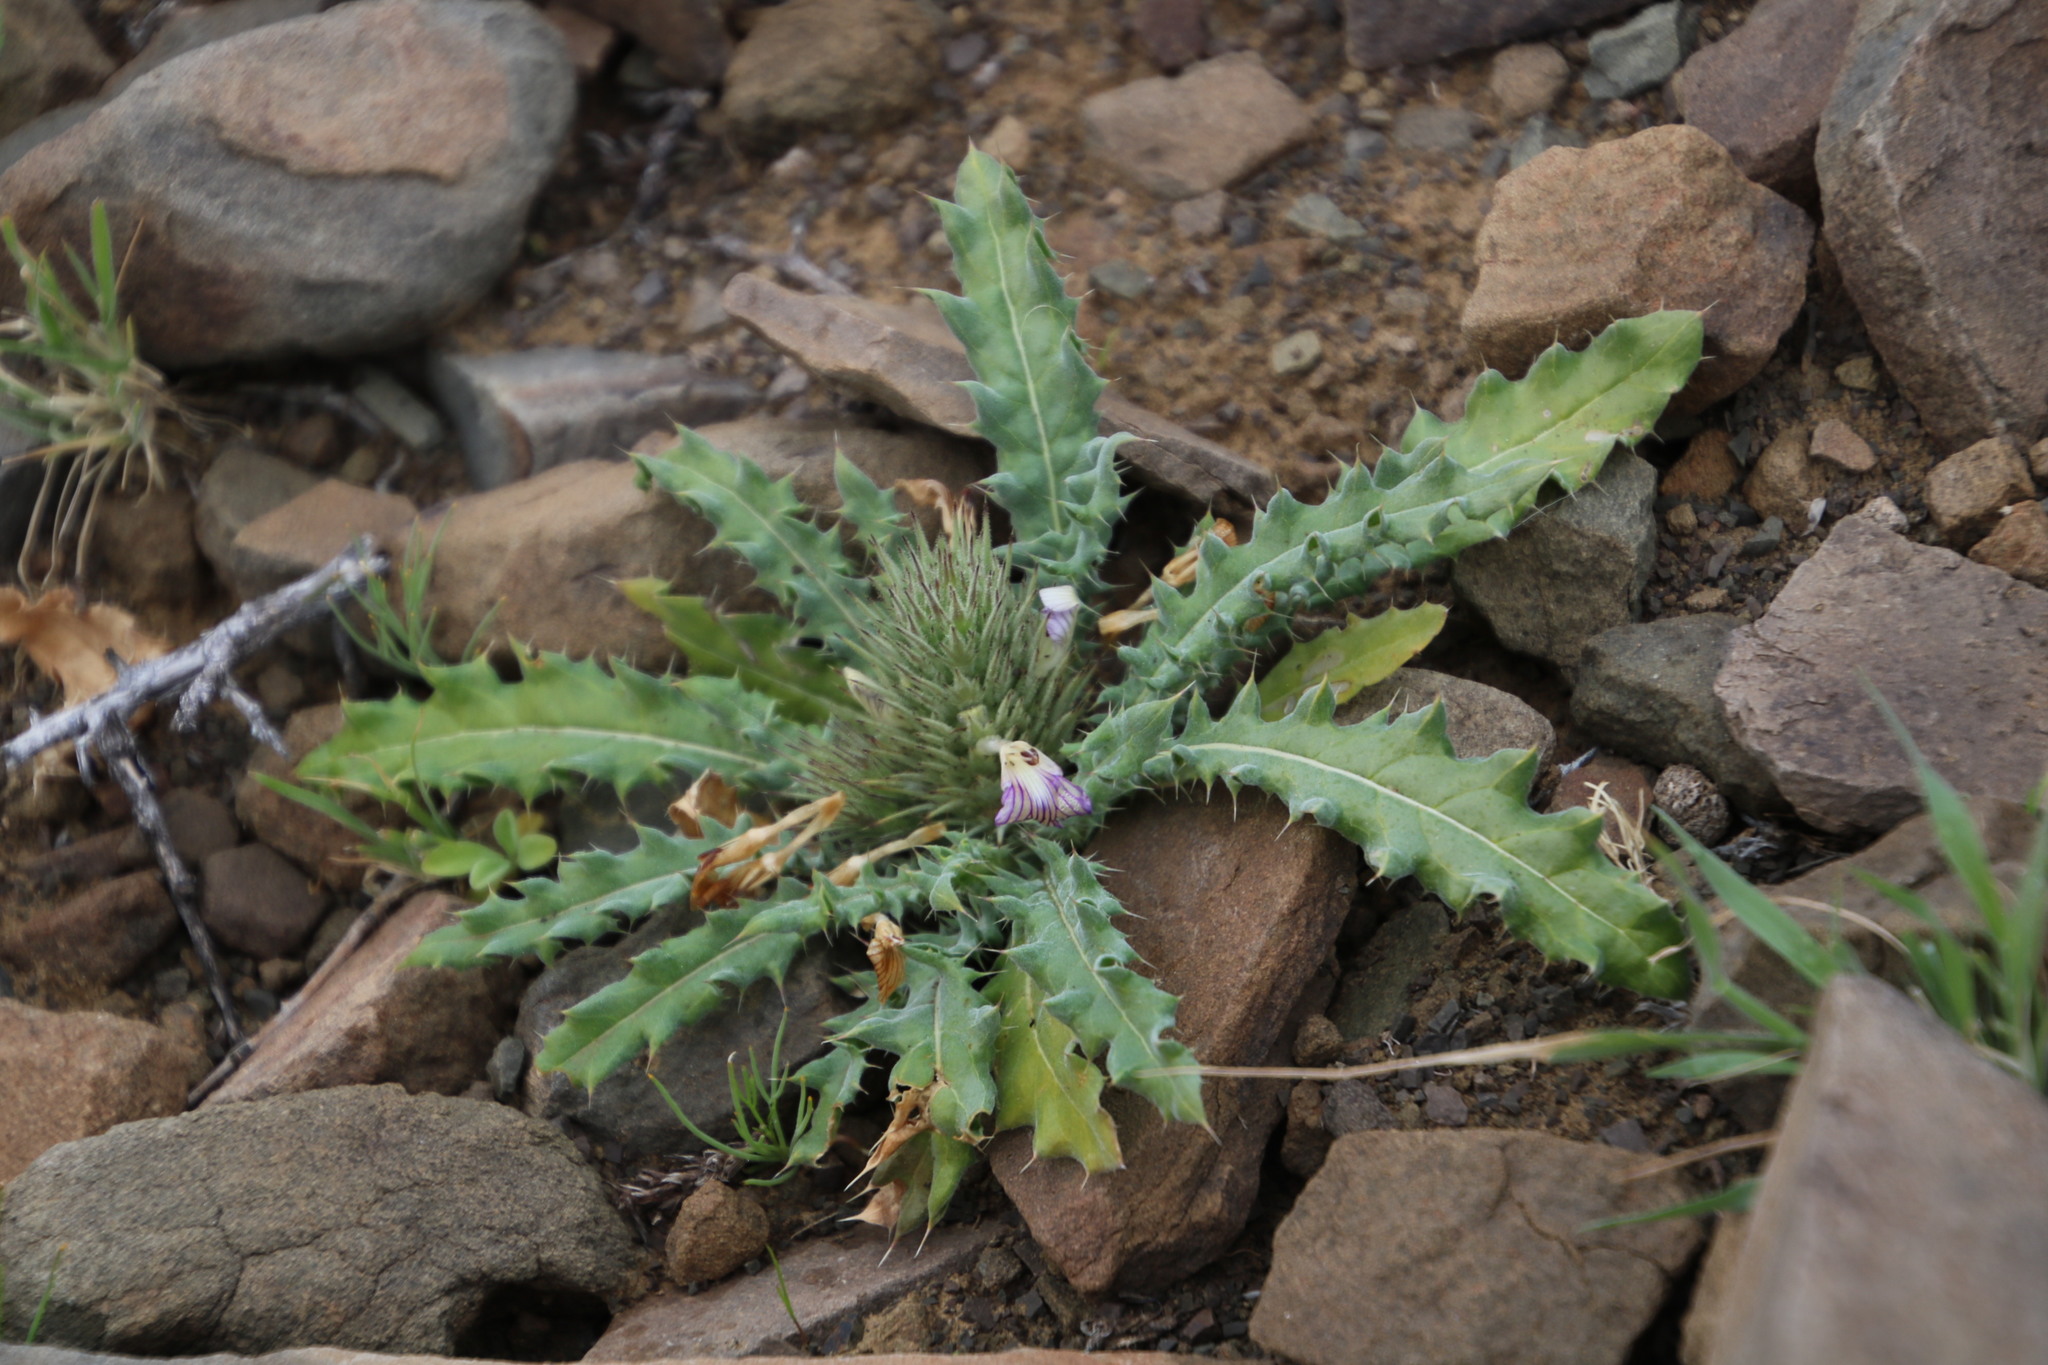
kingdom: Plantae
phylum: Tracheophyta
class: Magnoliopsida
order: Lamiales
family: Acanthaceae
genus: Acanthopsis
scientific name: Acanthopsis hoffmannseggiana
